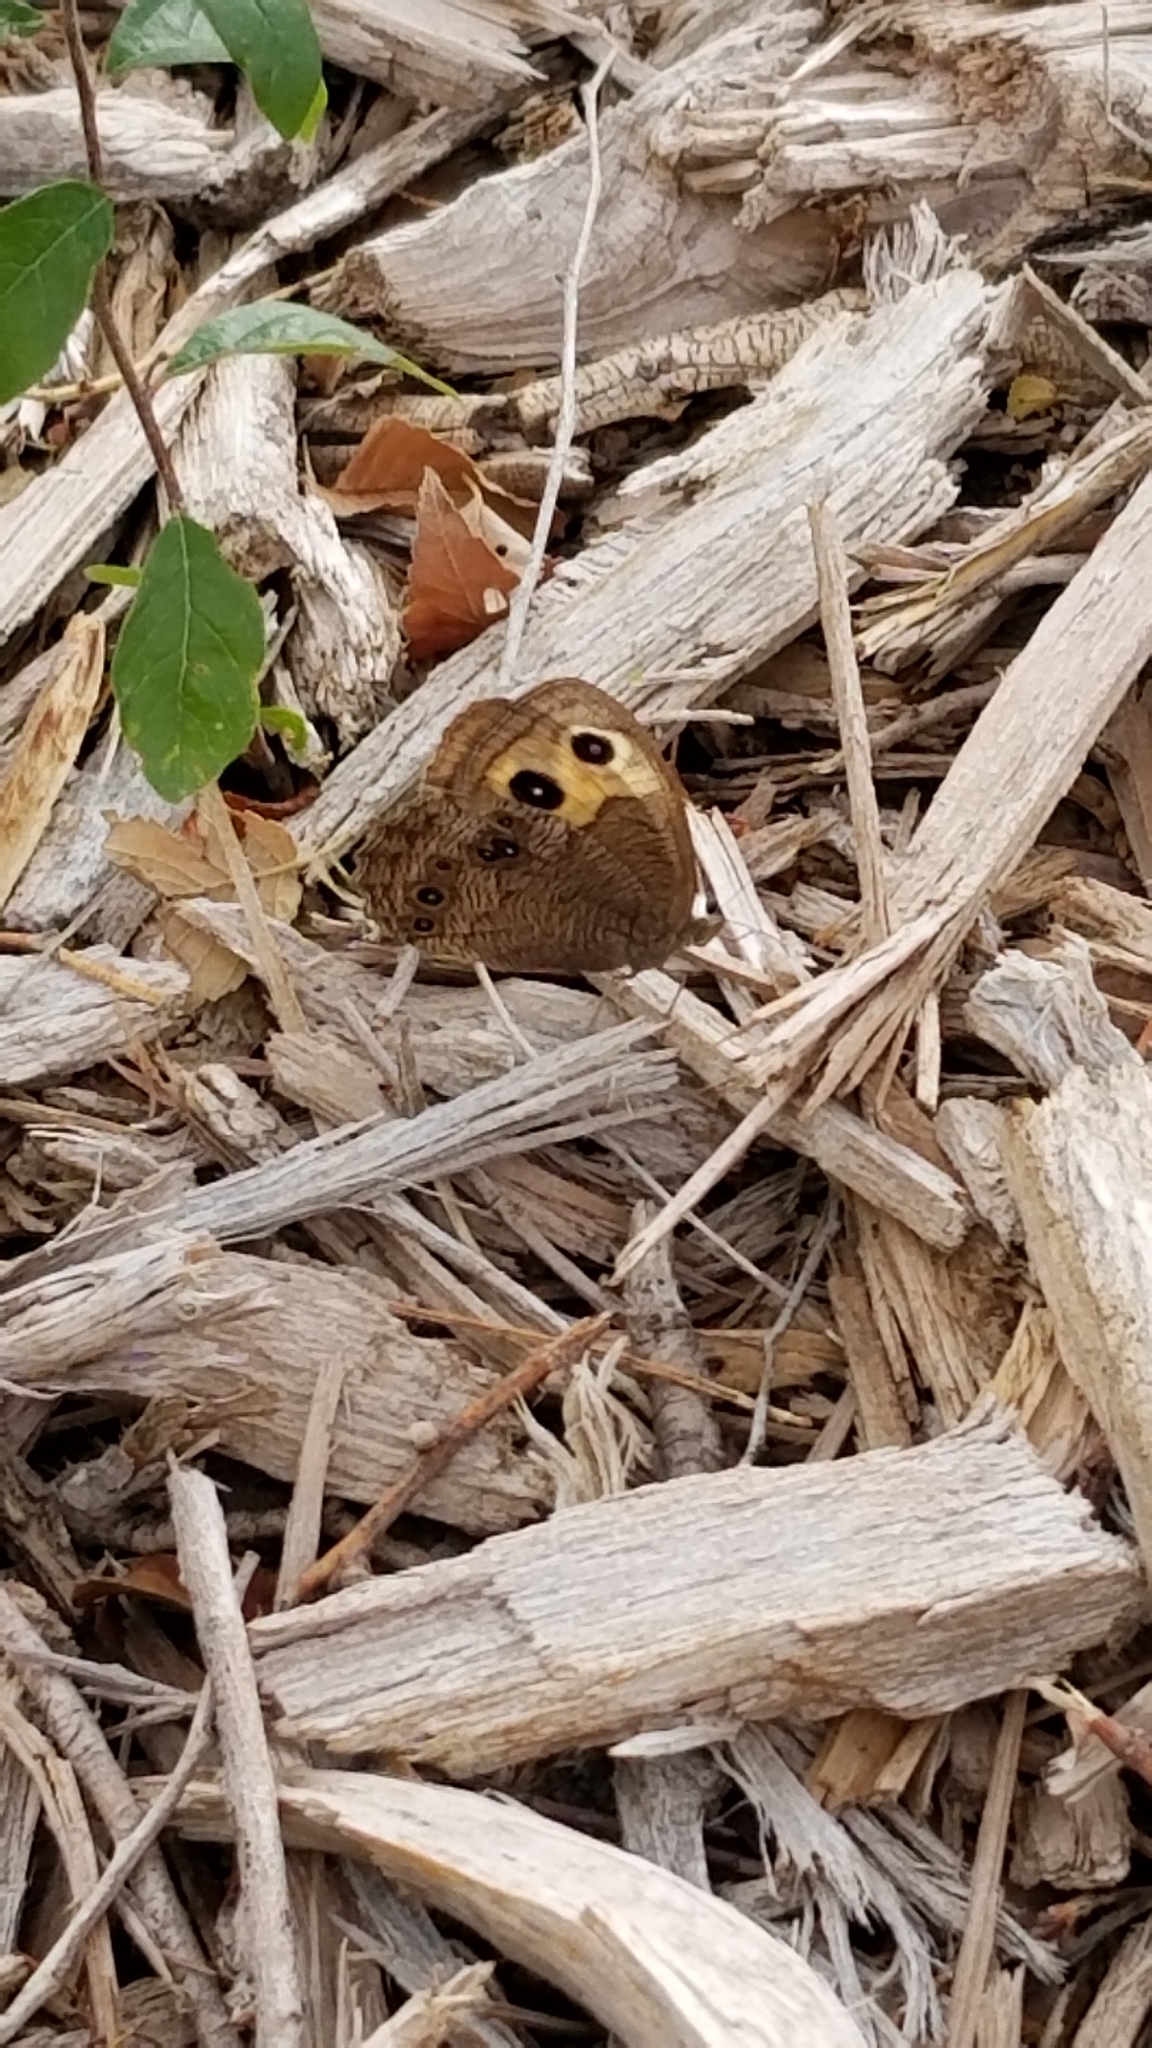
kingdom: Animalia
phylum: Arthropoda
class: Insecta
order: Lepidoptera
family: Nymphalidae
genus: Cercyonis
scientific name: Cercyonis pegala
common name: Common wood-nymph
